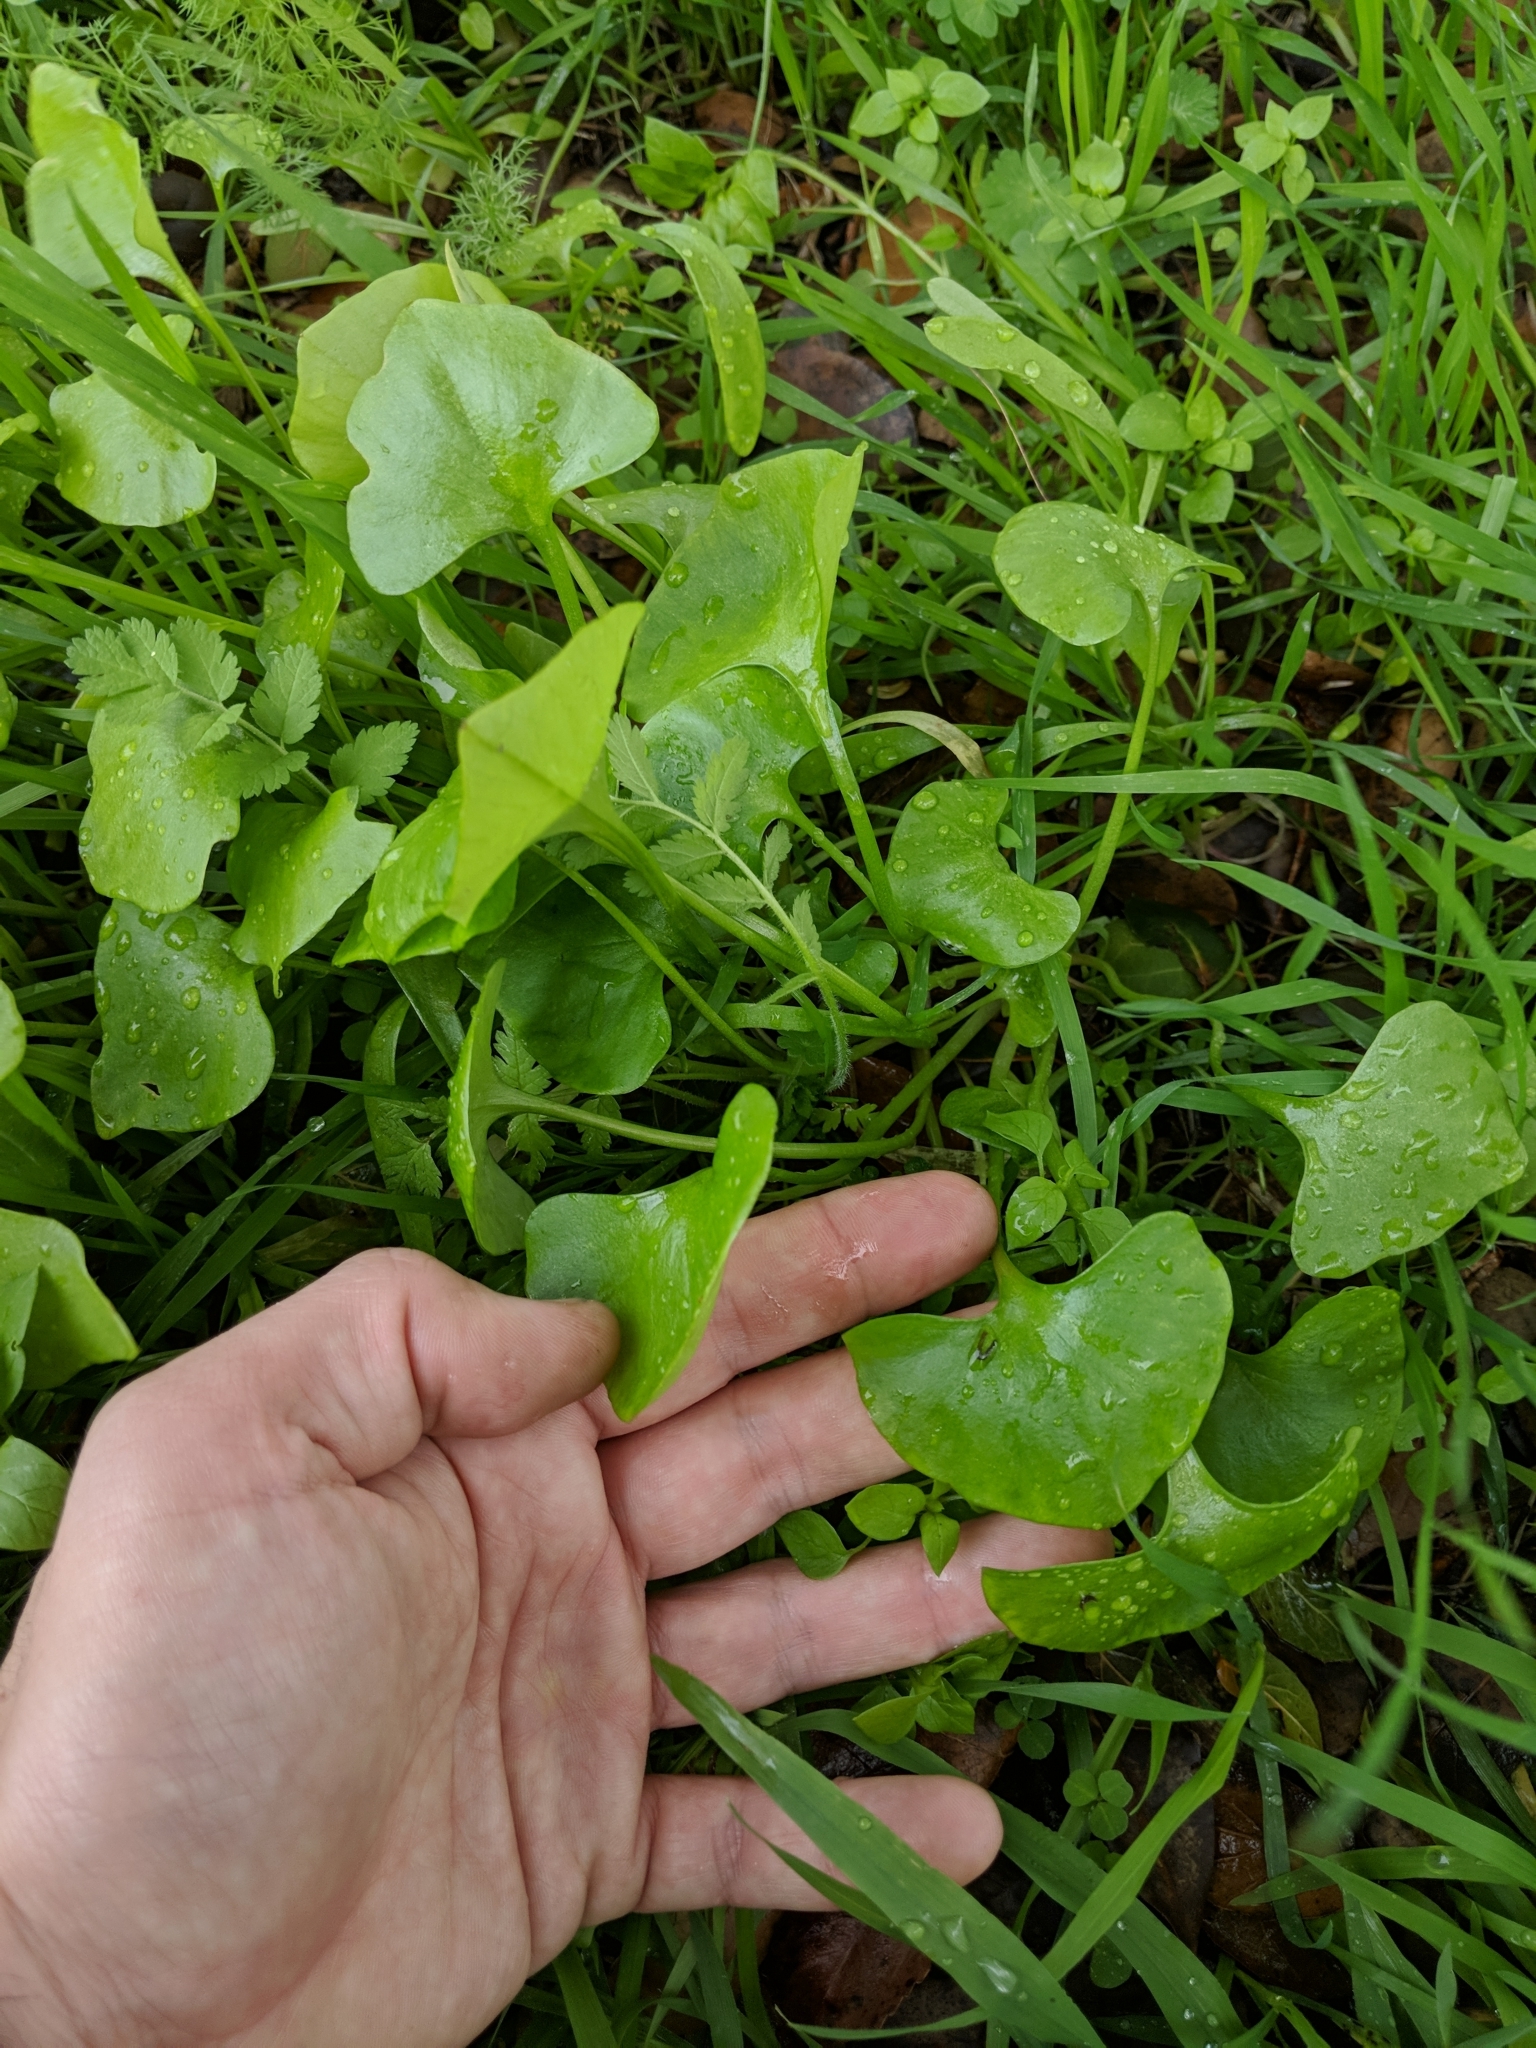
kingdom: Plantae
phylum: Tracheophyta
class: Magnoliopsida
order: Caryophyllales
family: Montiaceae
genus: Claytonia
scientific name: Claytonia perfoliata
